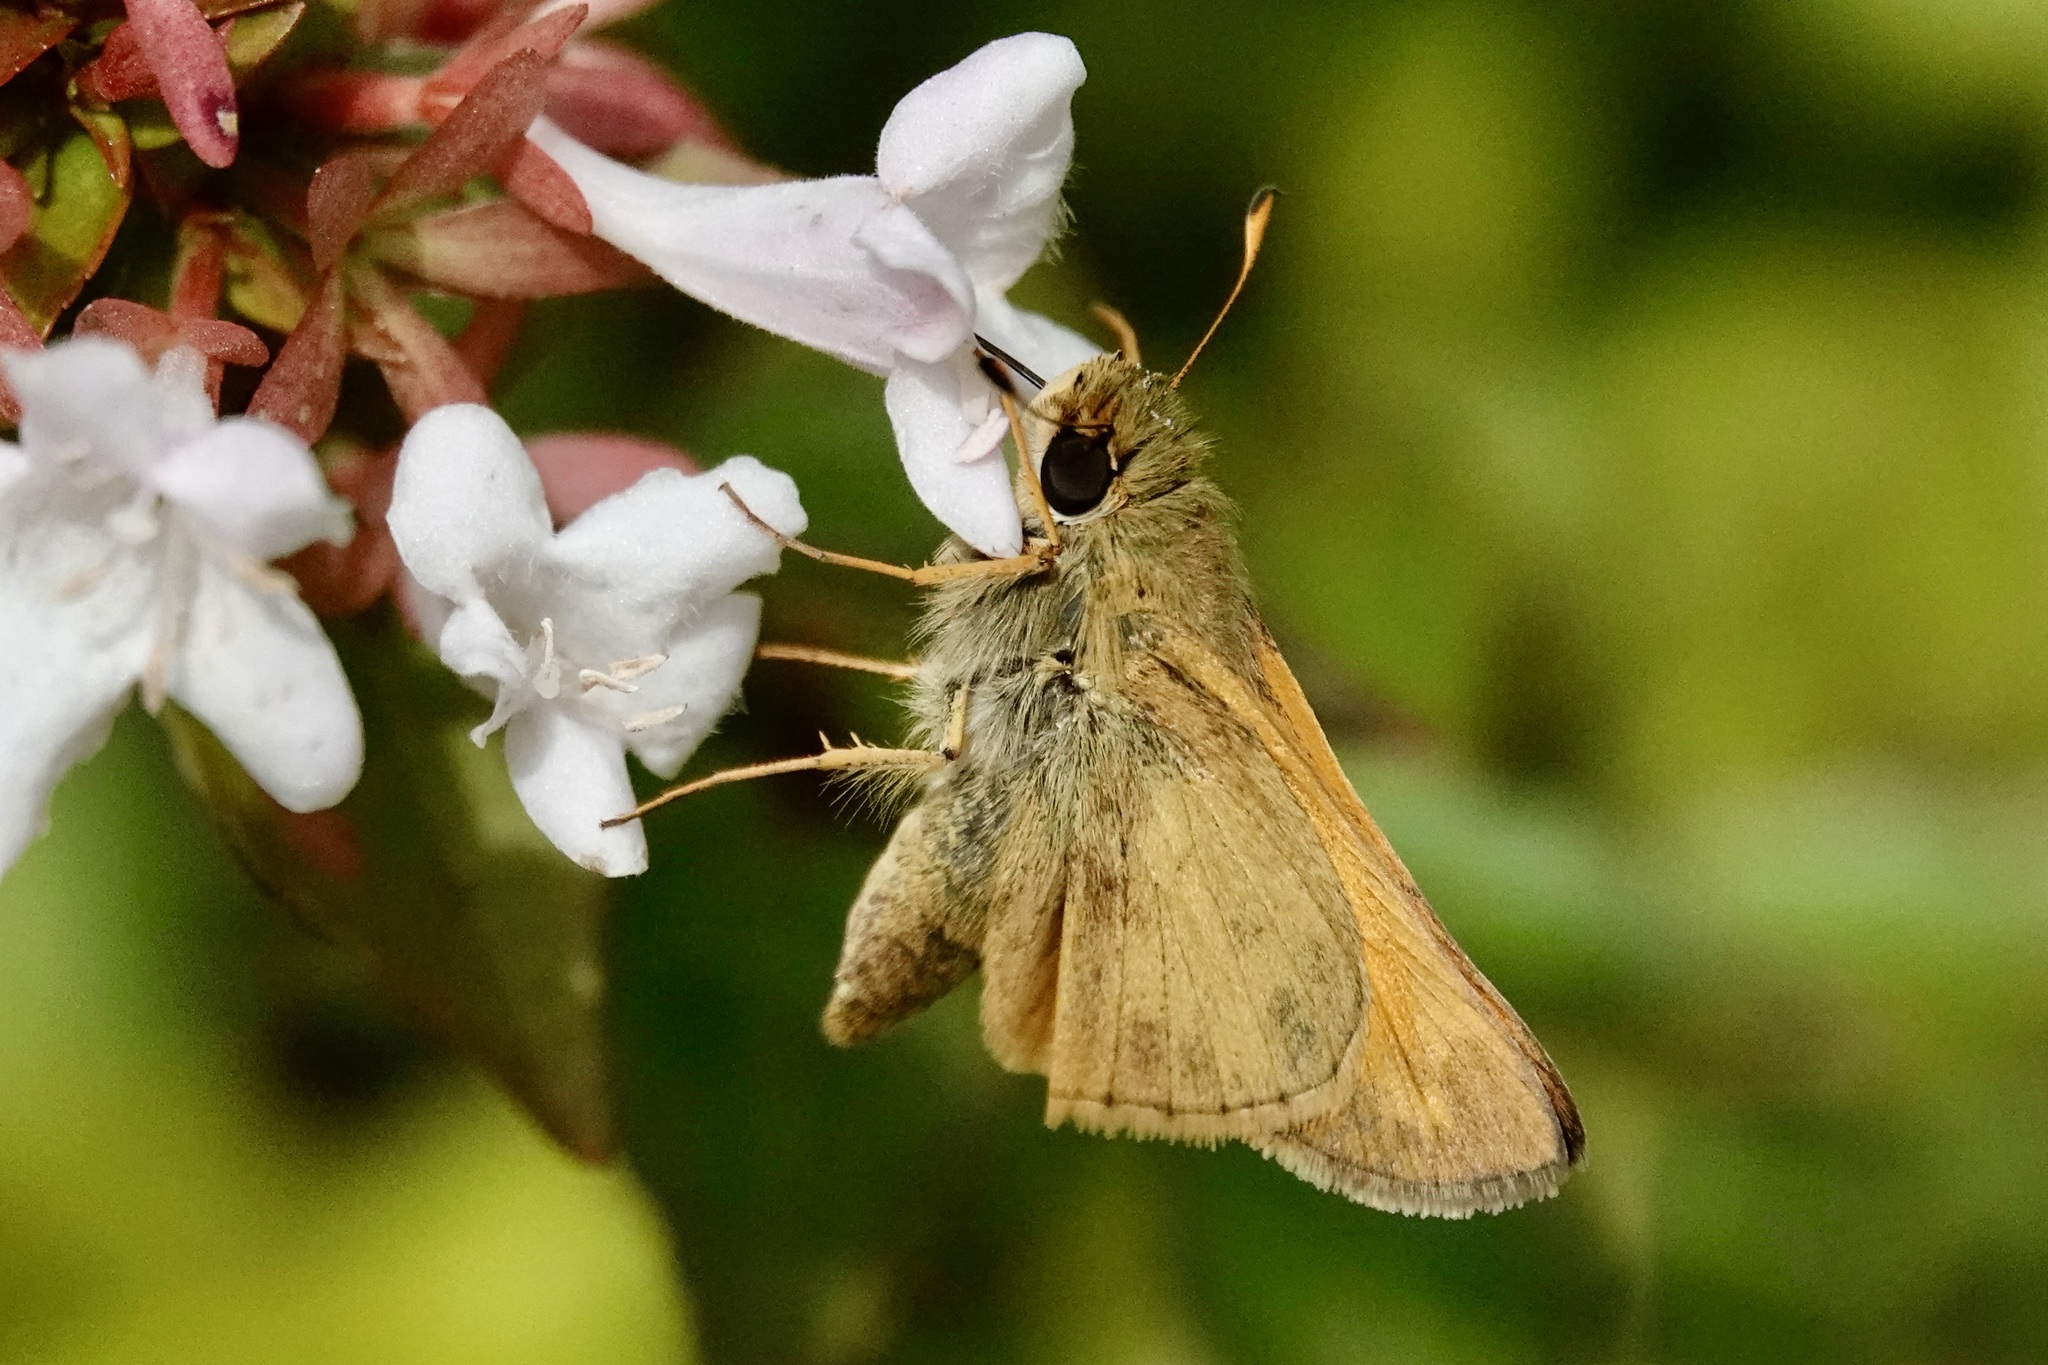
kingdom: Animalia
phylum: Arthropoda
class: Insecta
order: Lepidoptera
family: Hesperiidae
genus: Atalopedes
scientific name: Atalopedes
